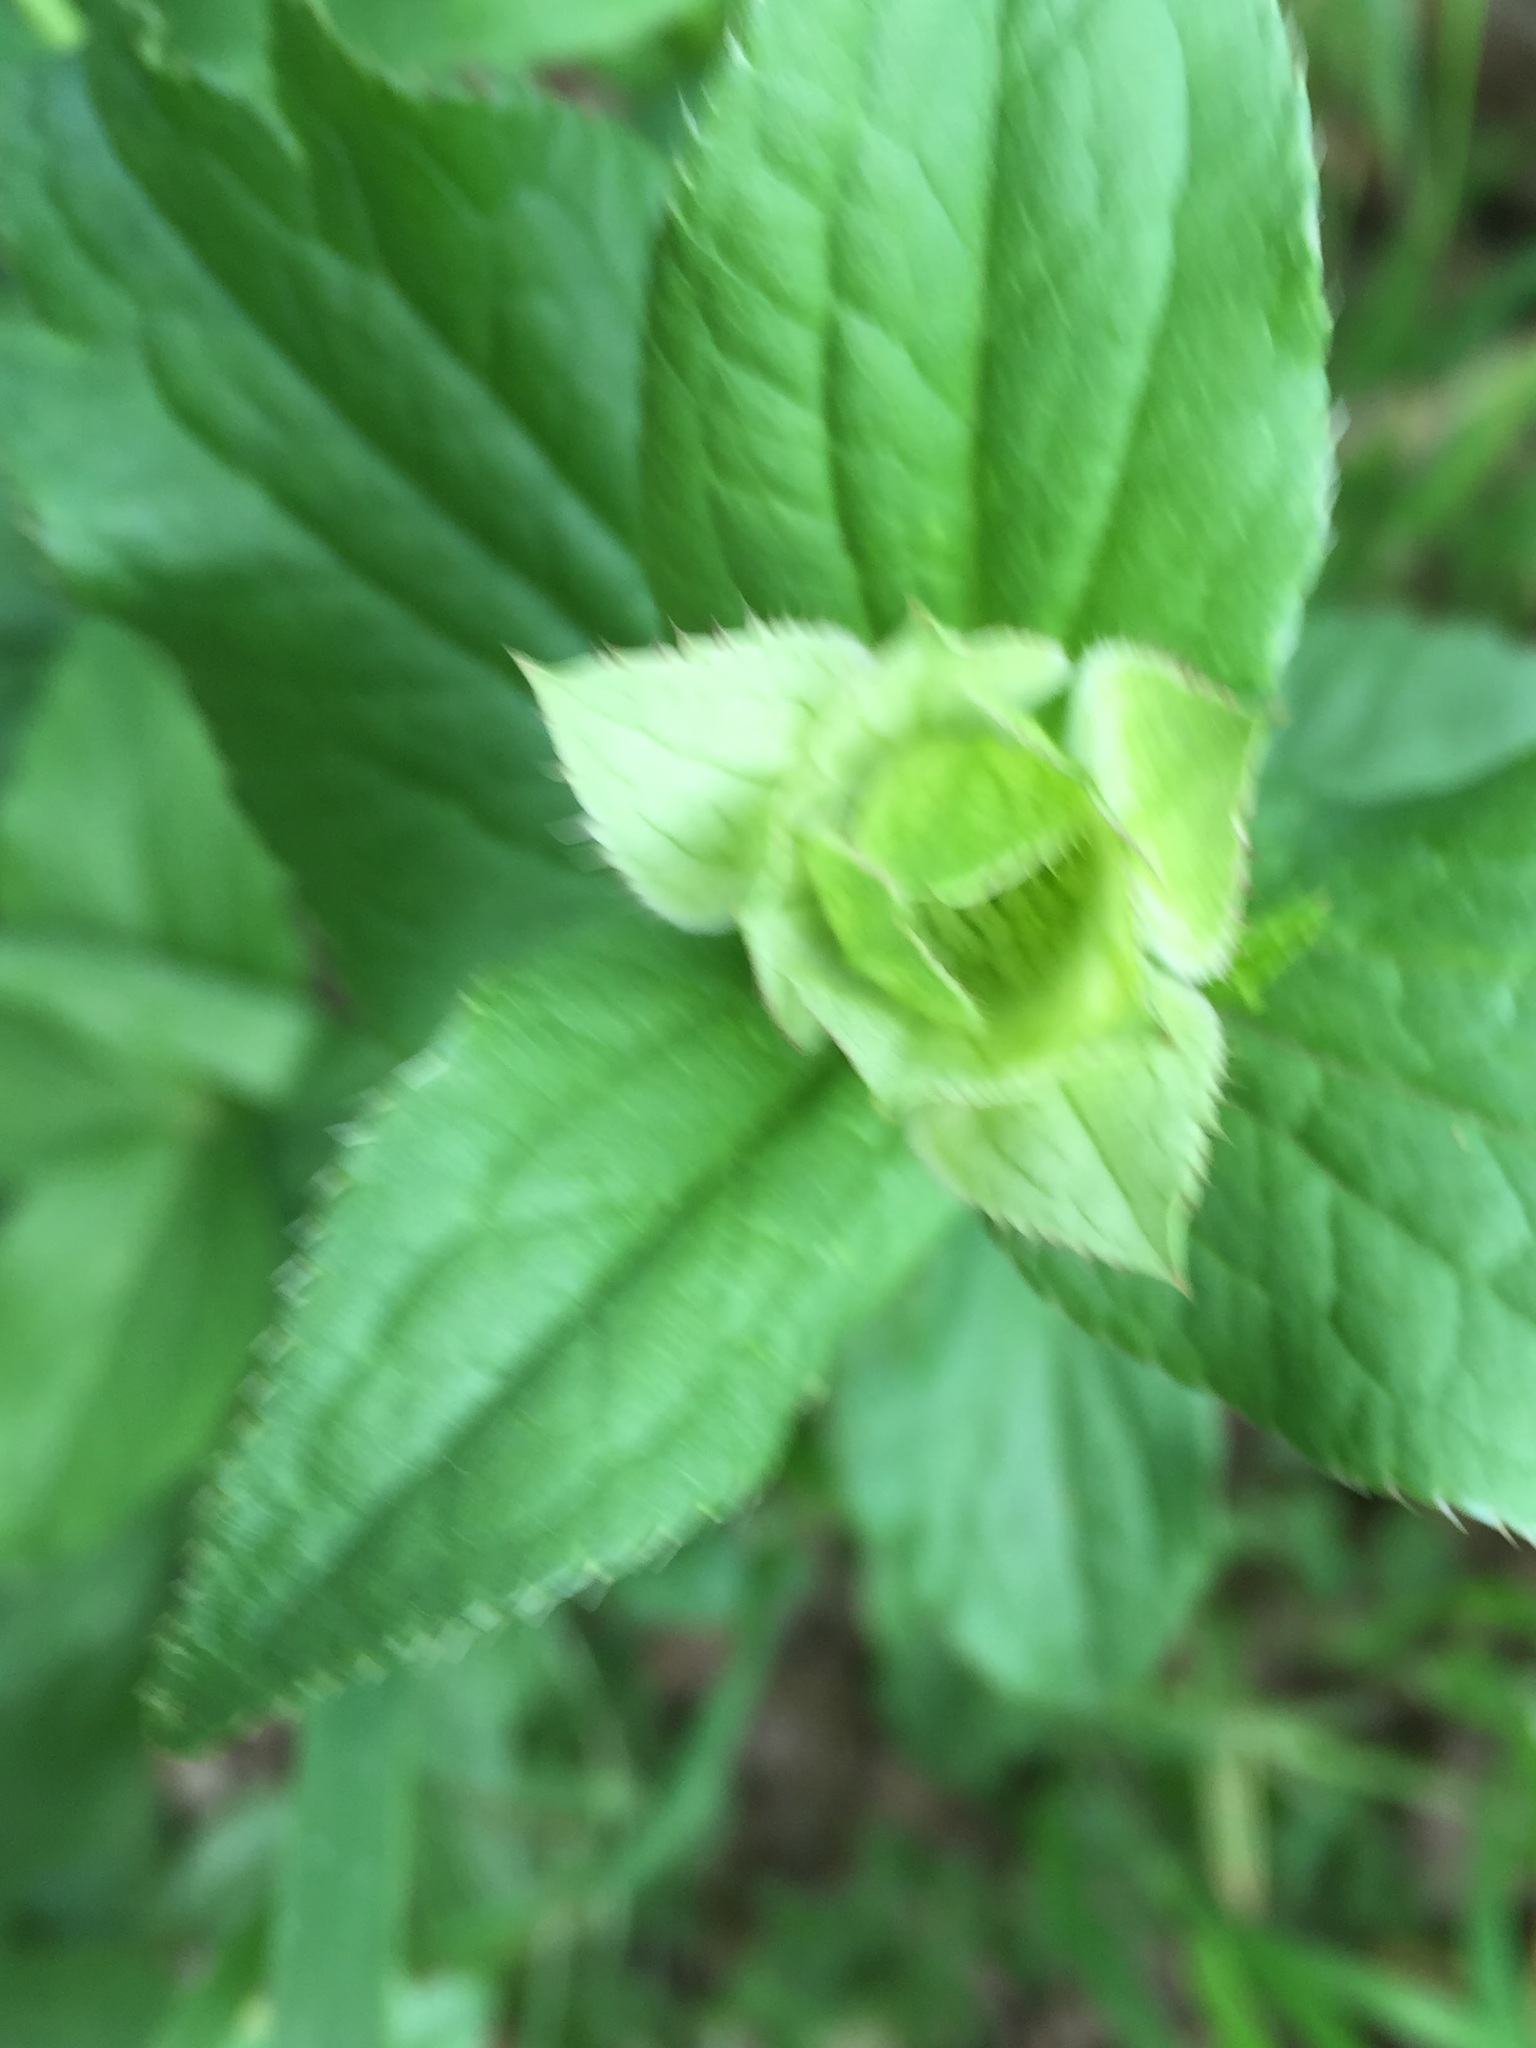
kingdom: Plantae
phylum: Tracheophyta
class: Magnoliopsida
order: Apiales
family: Apiaceae
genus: Astrantia
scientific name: Astrantia maxima
